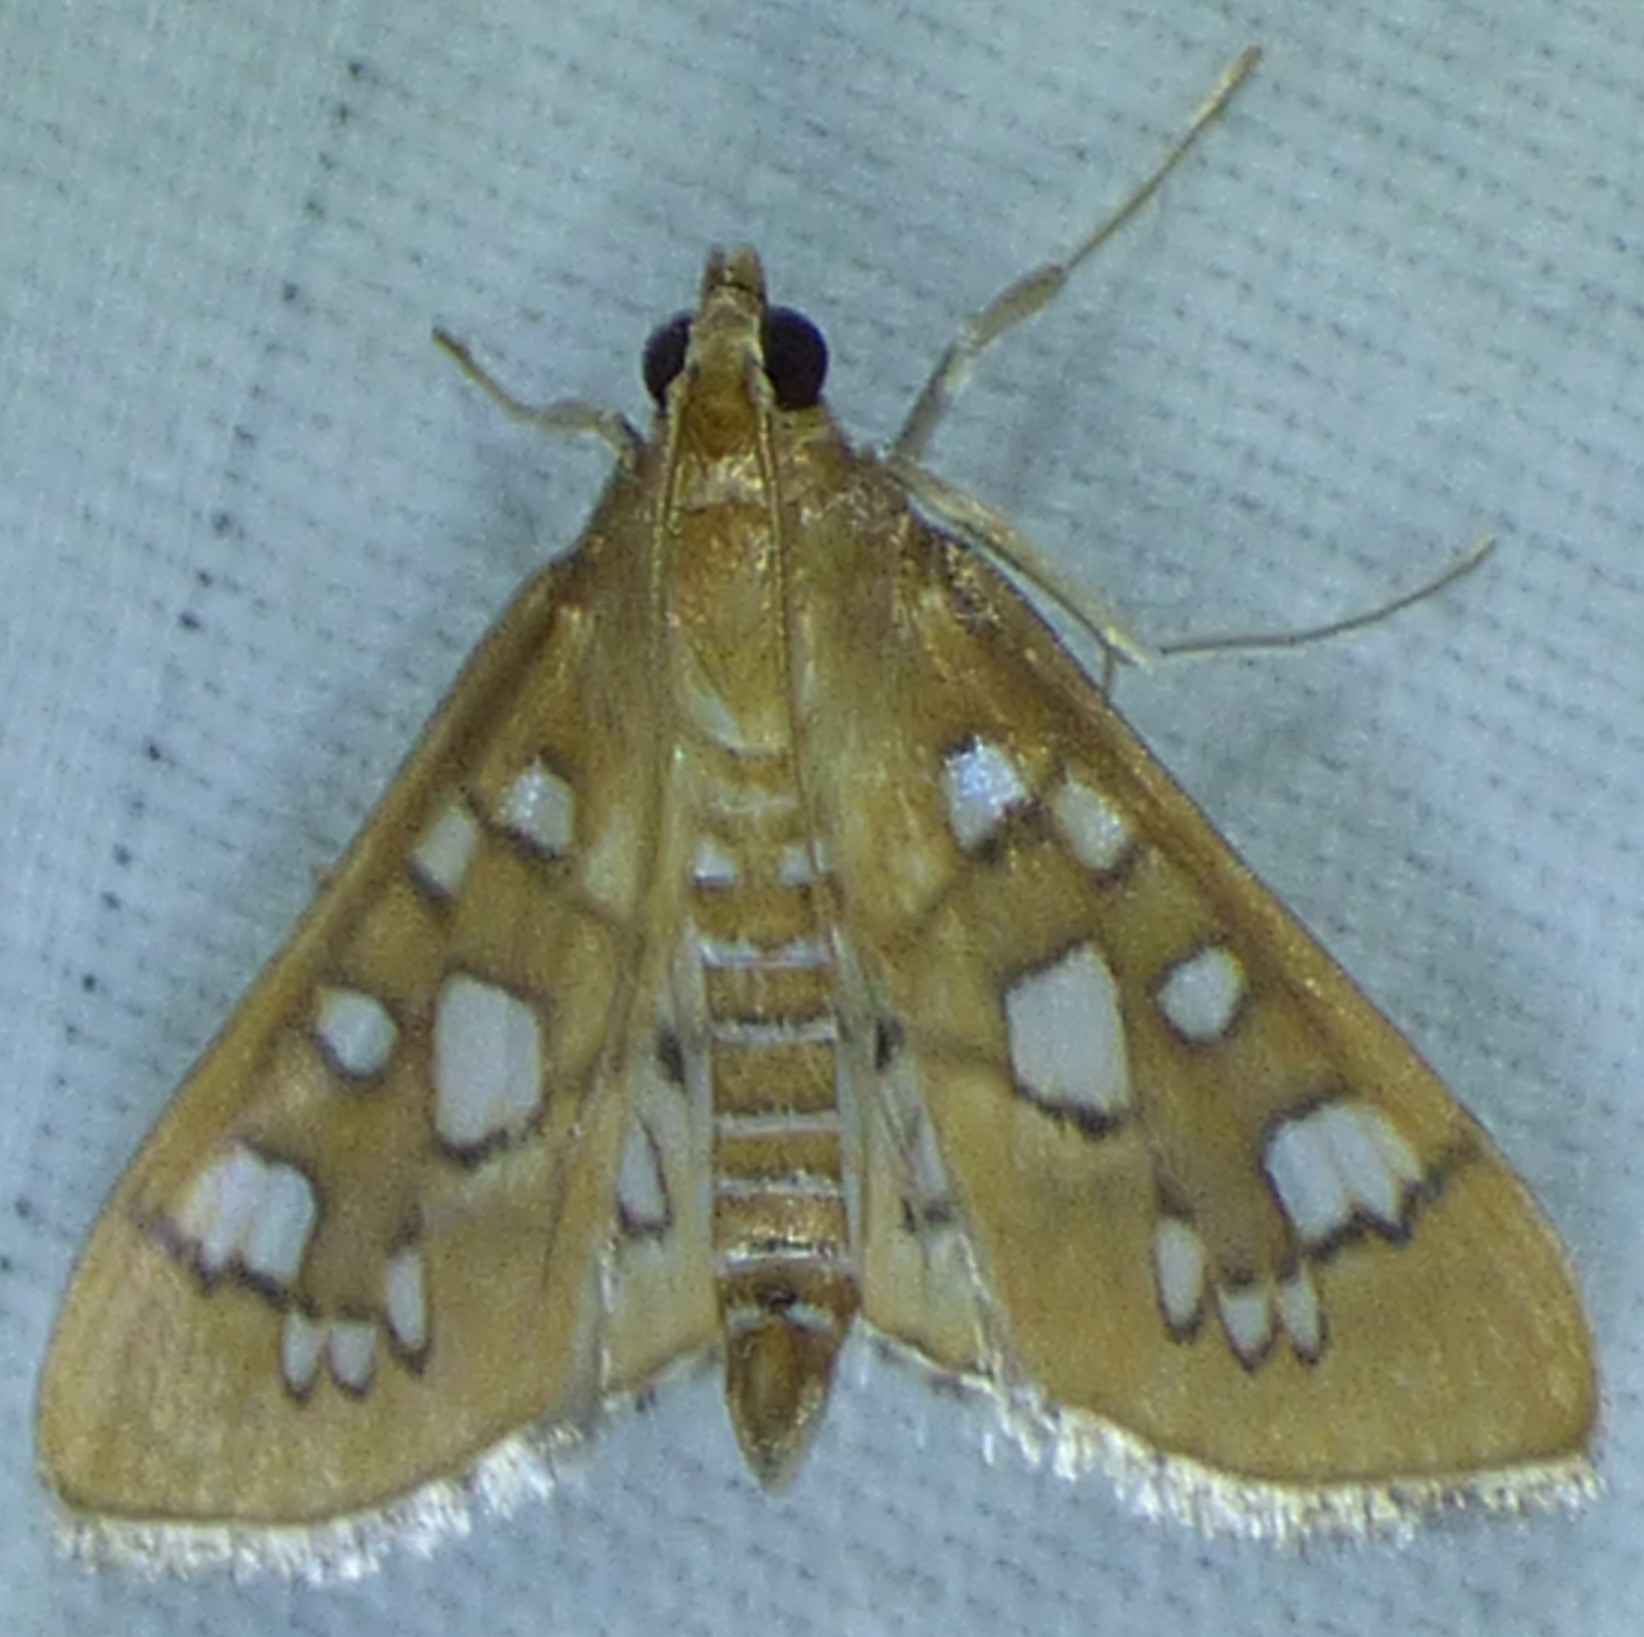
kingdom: Animalia
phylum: Arthropoda
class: Insecta
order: Lepidoptera
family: Crambidae
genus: Samea
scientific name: Samea baccatalis
